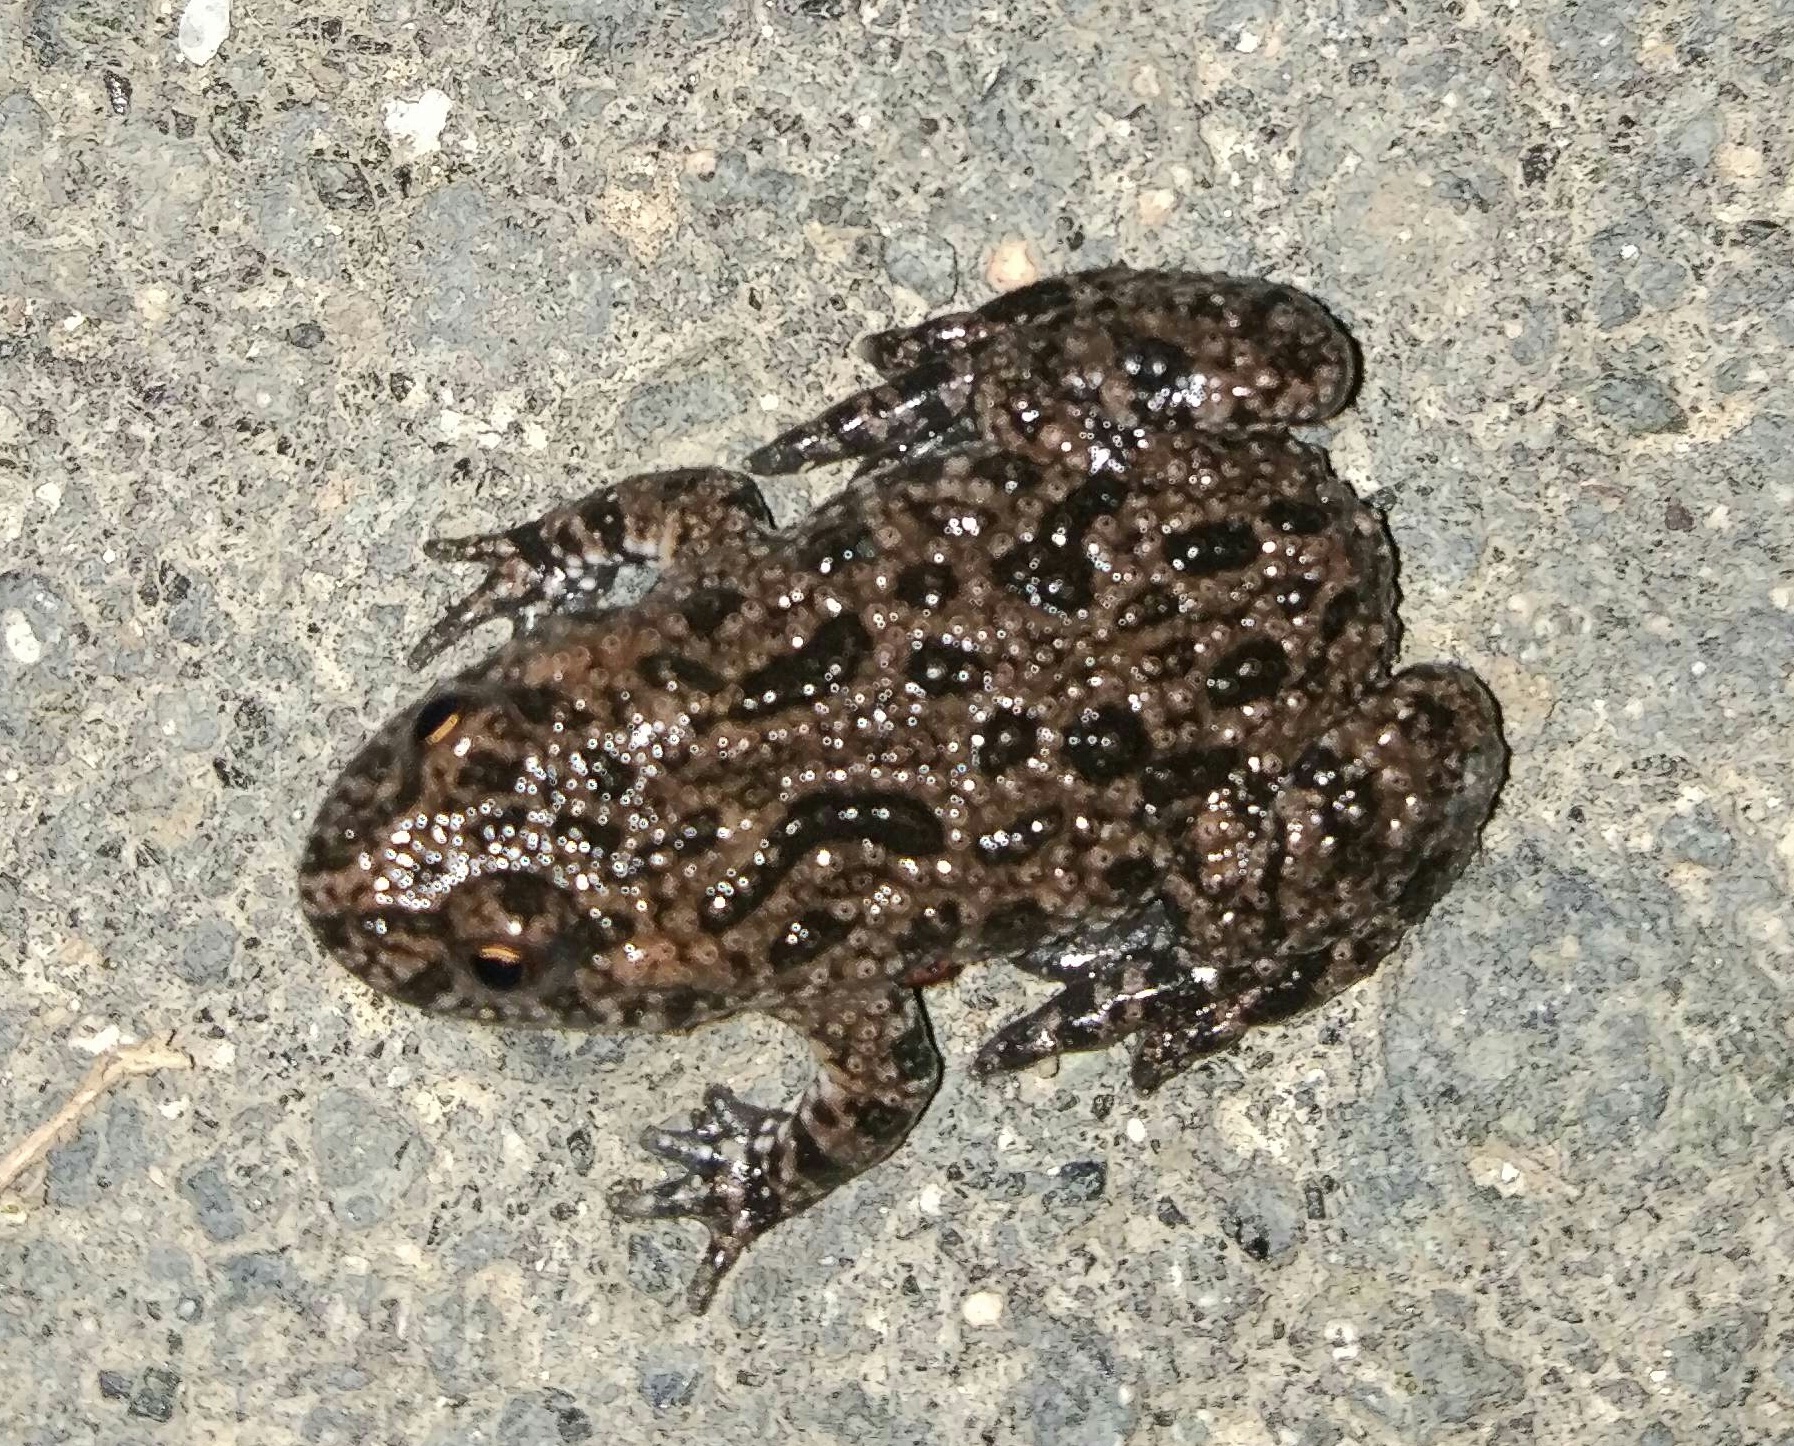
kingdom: Animalia
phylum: Chordata
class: Amphibia
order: Anura
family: Bombinatoridae
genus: Bombina
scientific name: Bombina bombina
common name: Fire-bellied toad
